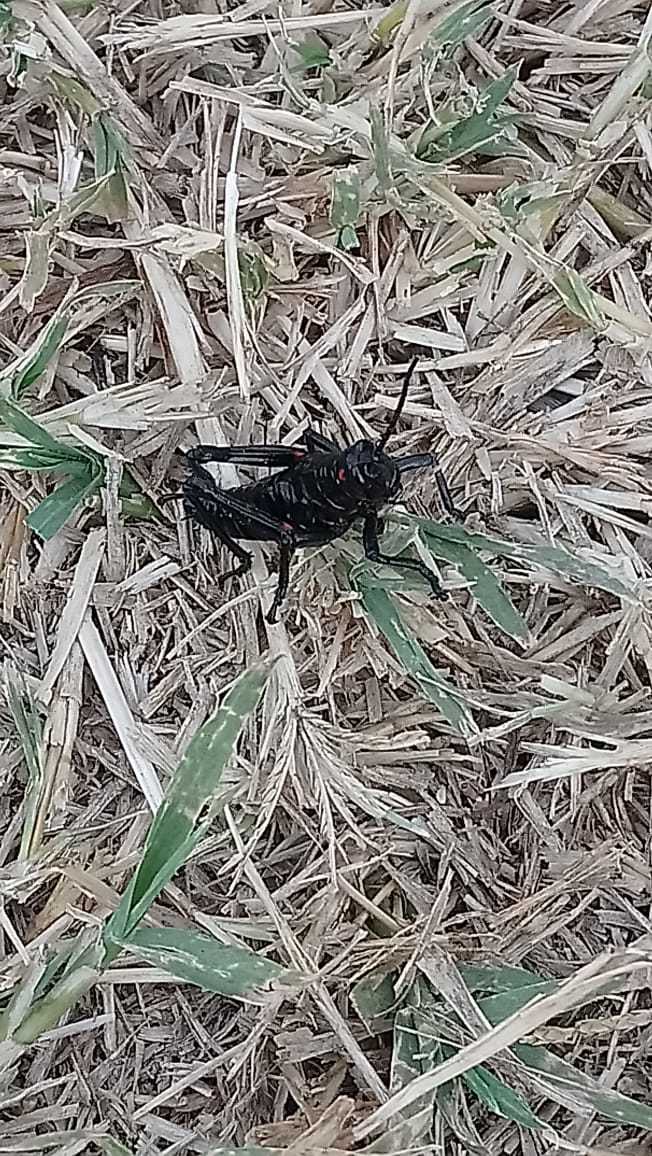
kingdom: Animalia
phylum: Arthropoda
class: Insecta
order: Orthoptera
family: Romaleidae
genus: Chromacris
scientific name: Chromacris speciosa
